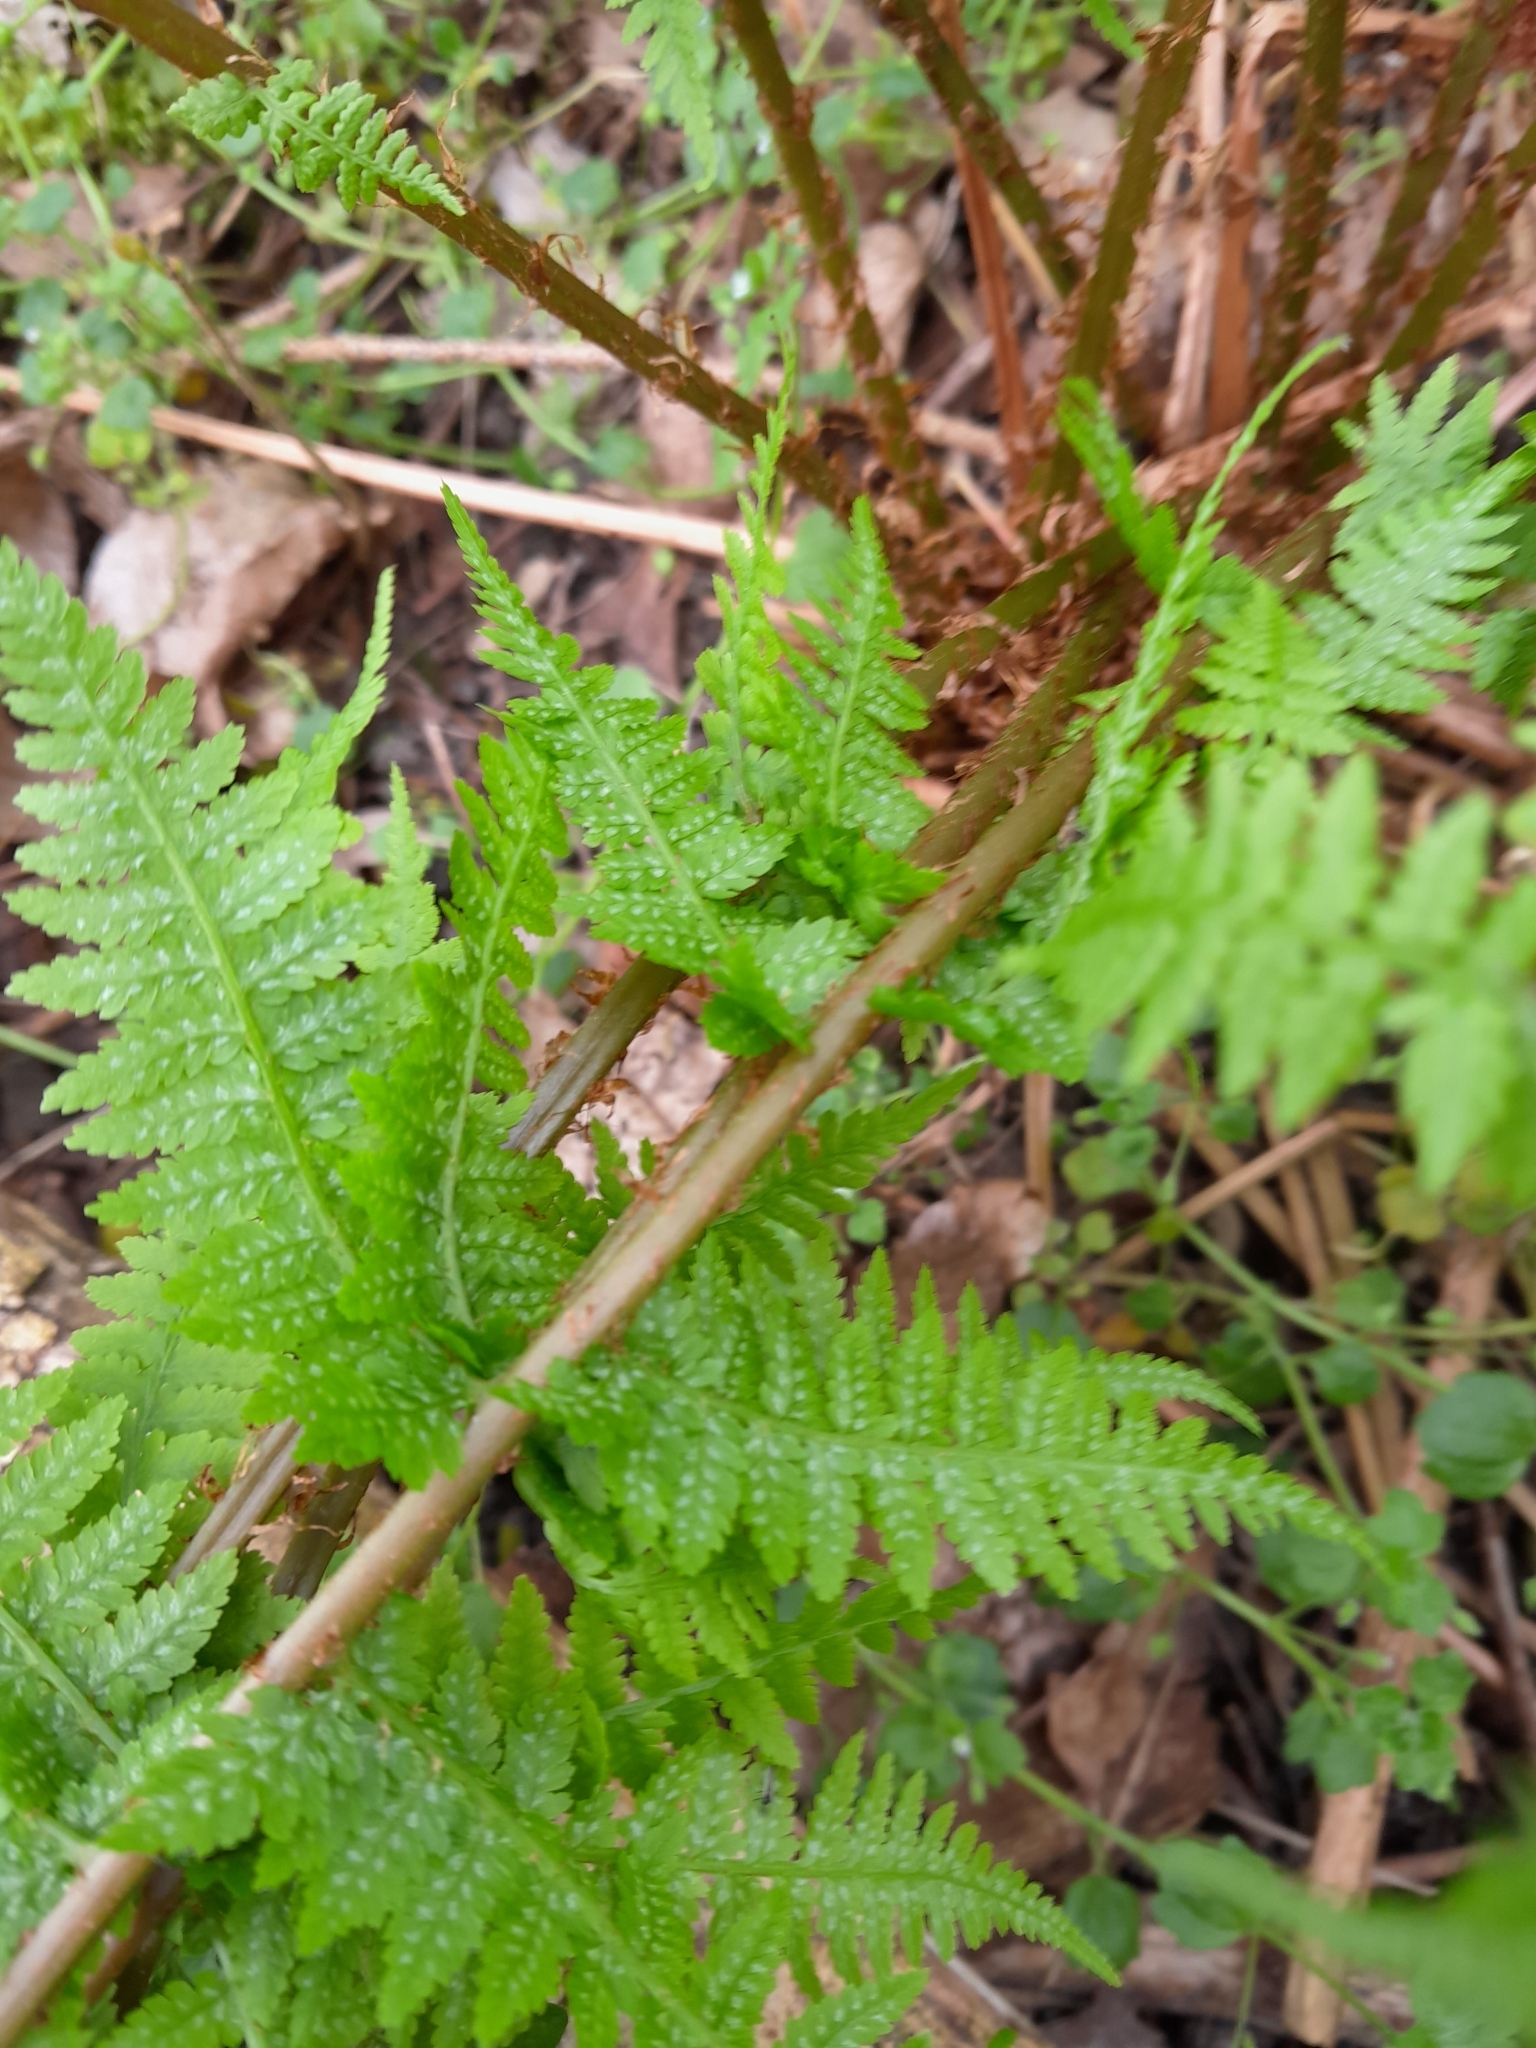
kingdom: Plantae
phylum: Tracheophyta
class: Polypodiopsida
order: Polypodiales
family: Athyriaceae
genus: Athyrium
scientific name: Athyrium filix-femina
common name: Lady fern
